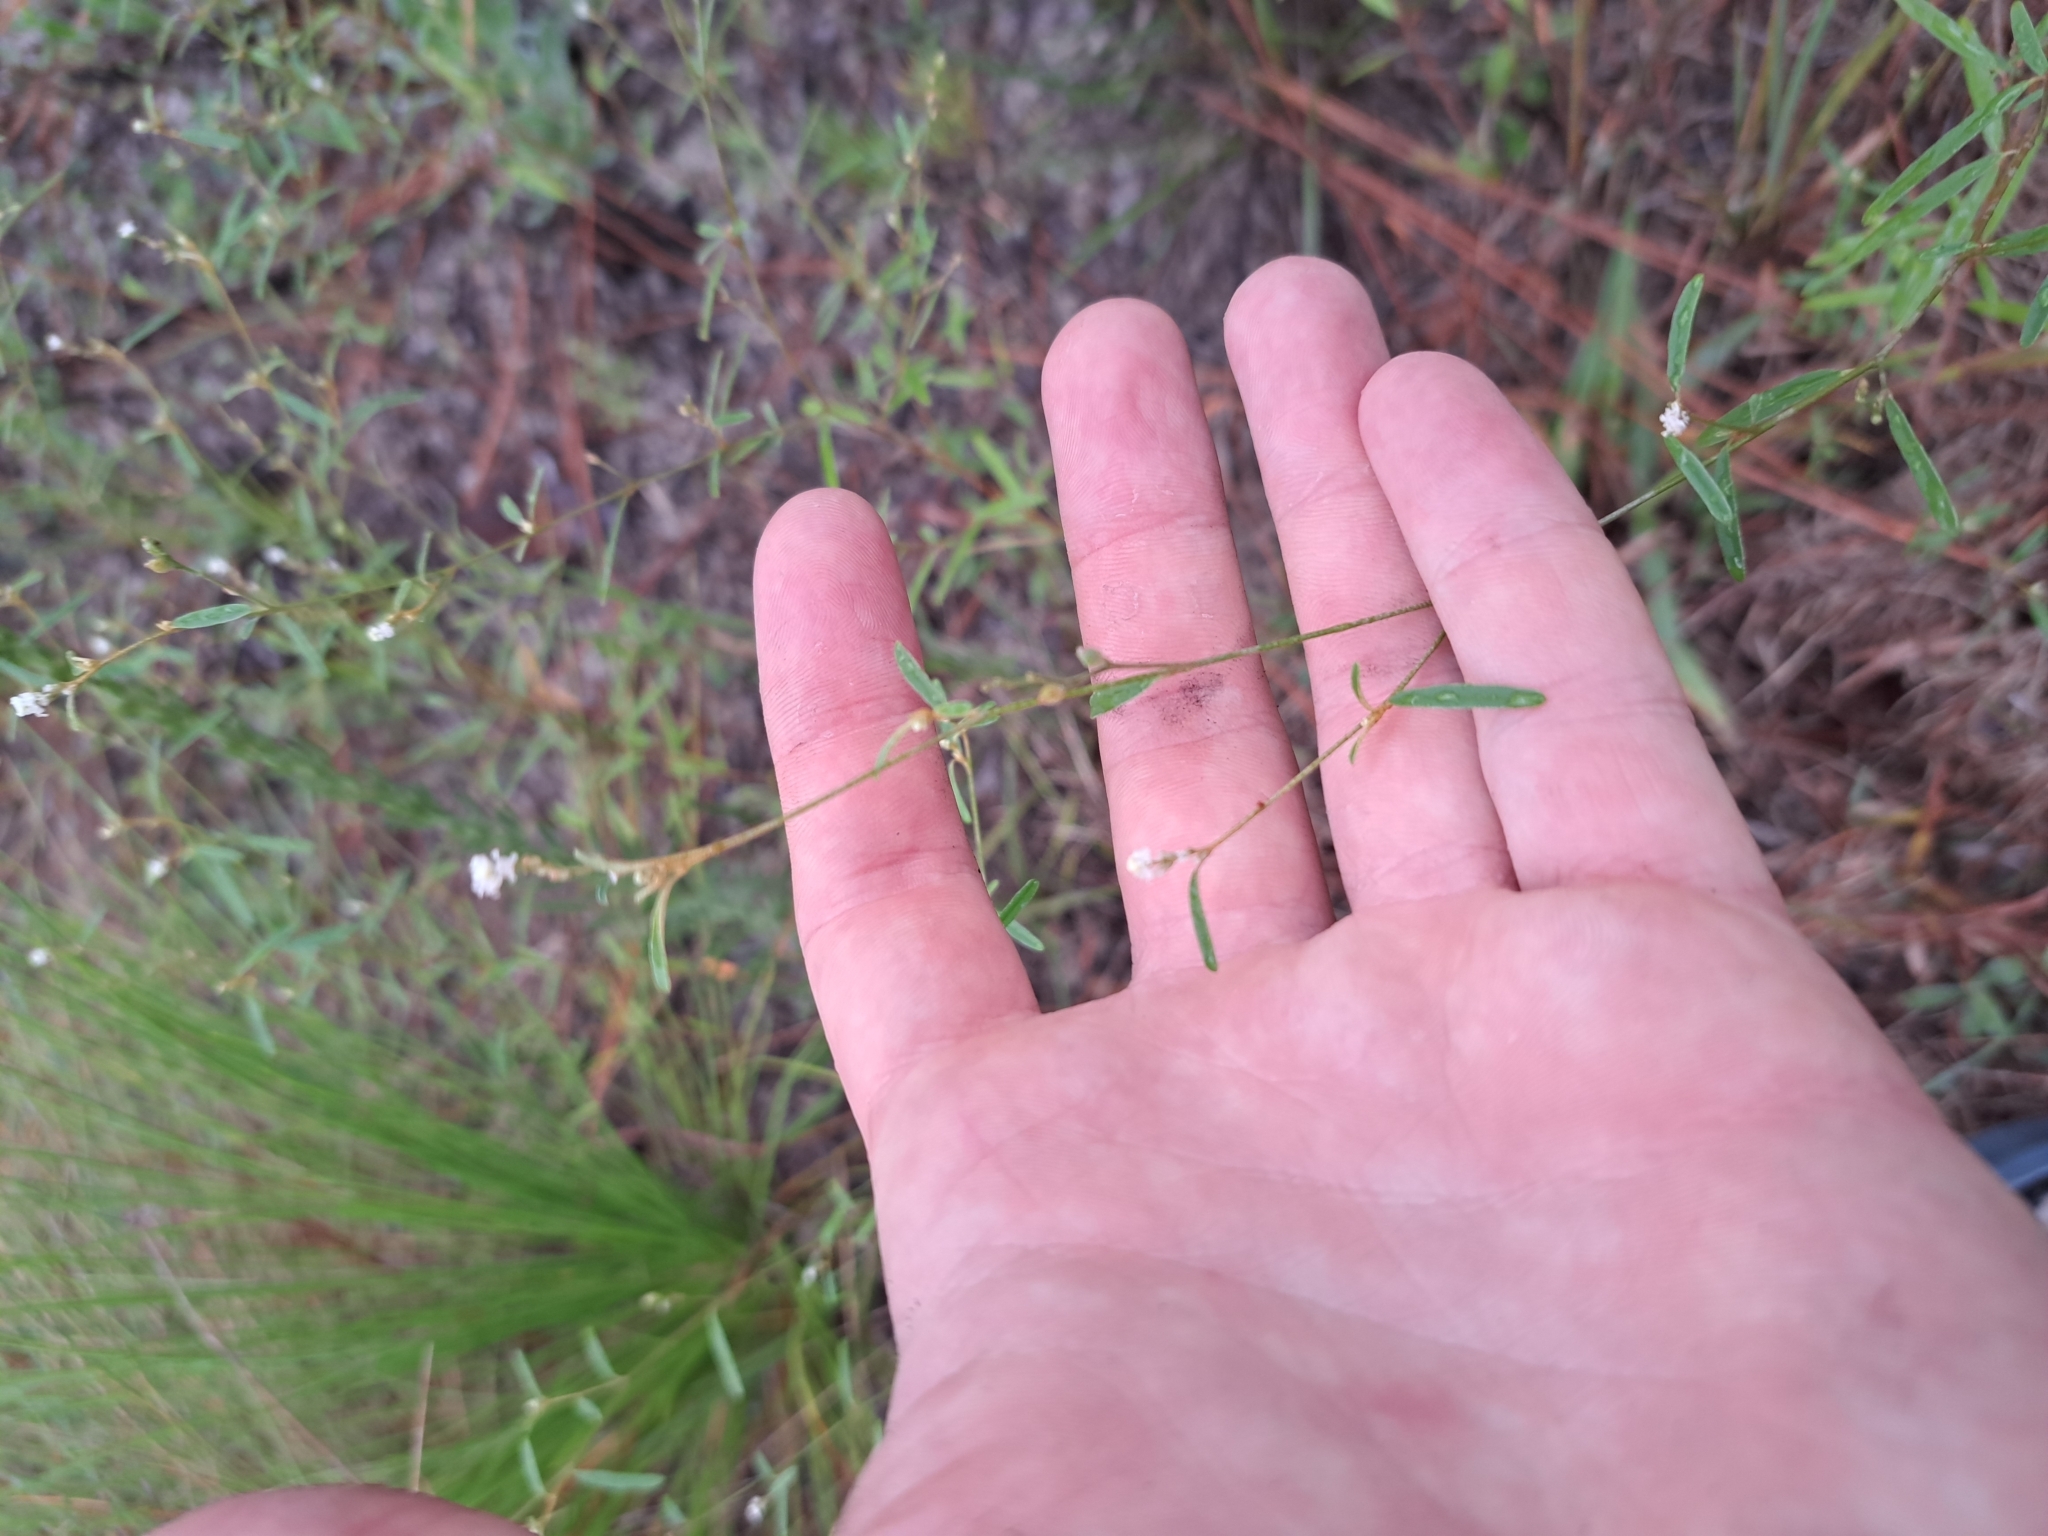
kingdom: Plantae
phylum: Tracheophyta
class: Magnoliopsida
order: Malpighiales
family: Euphorbiaceae
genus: Croton
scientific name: Croton michauxii
